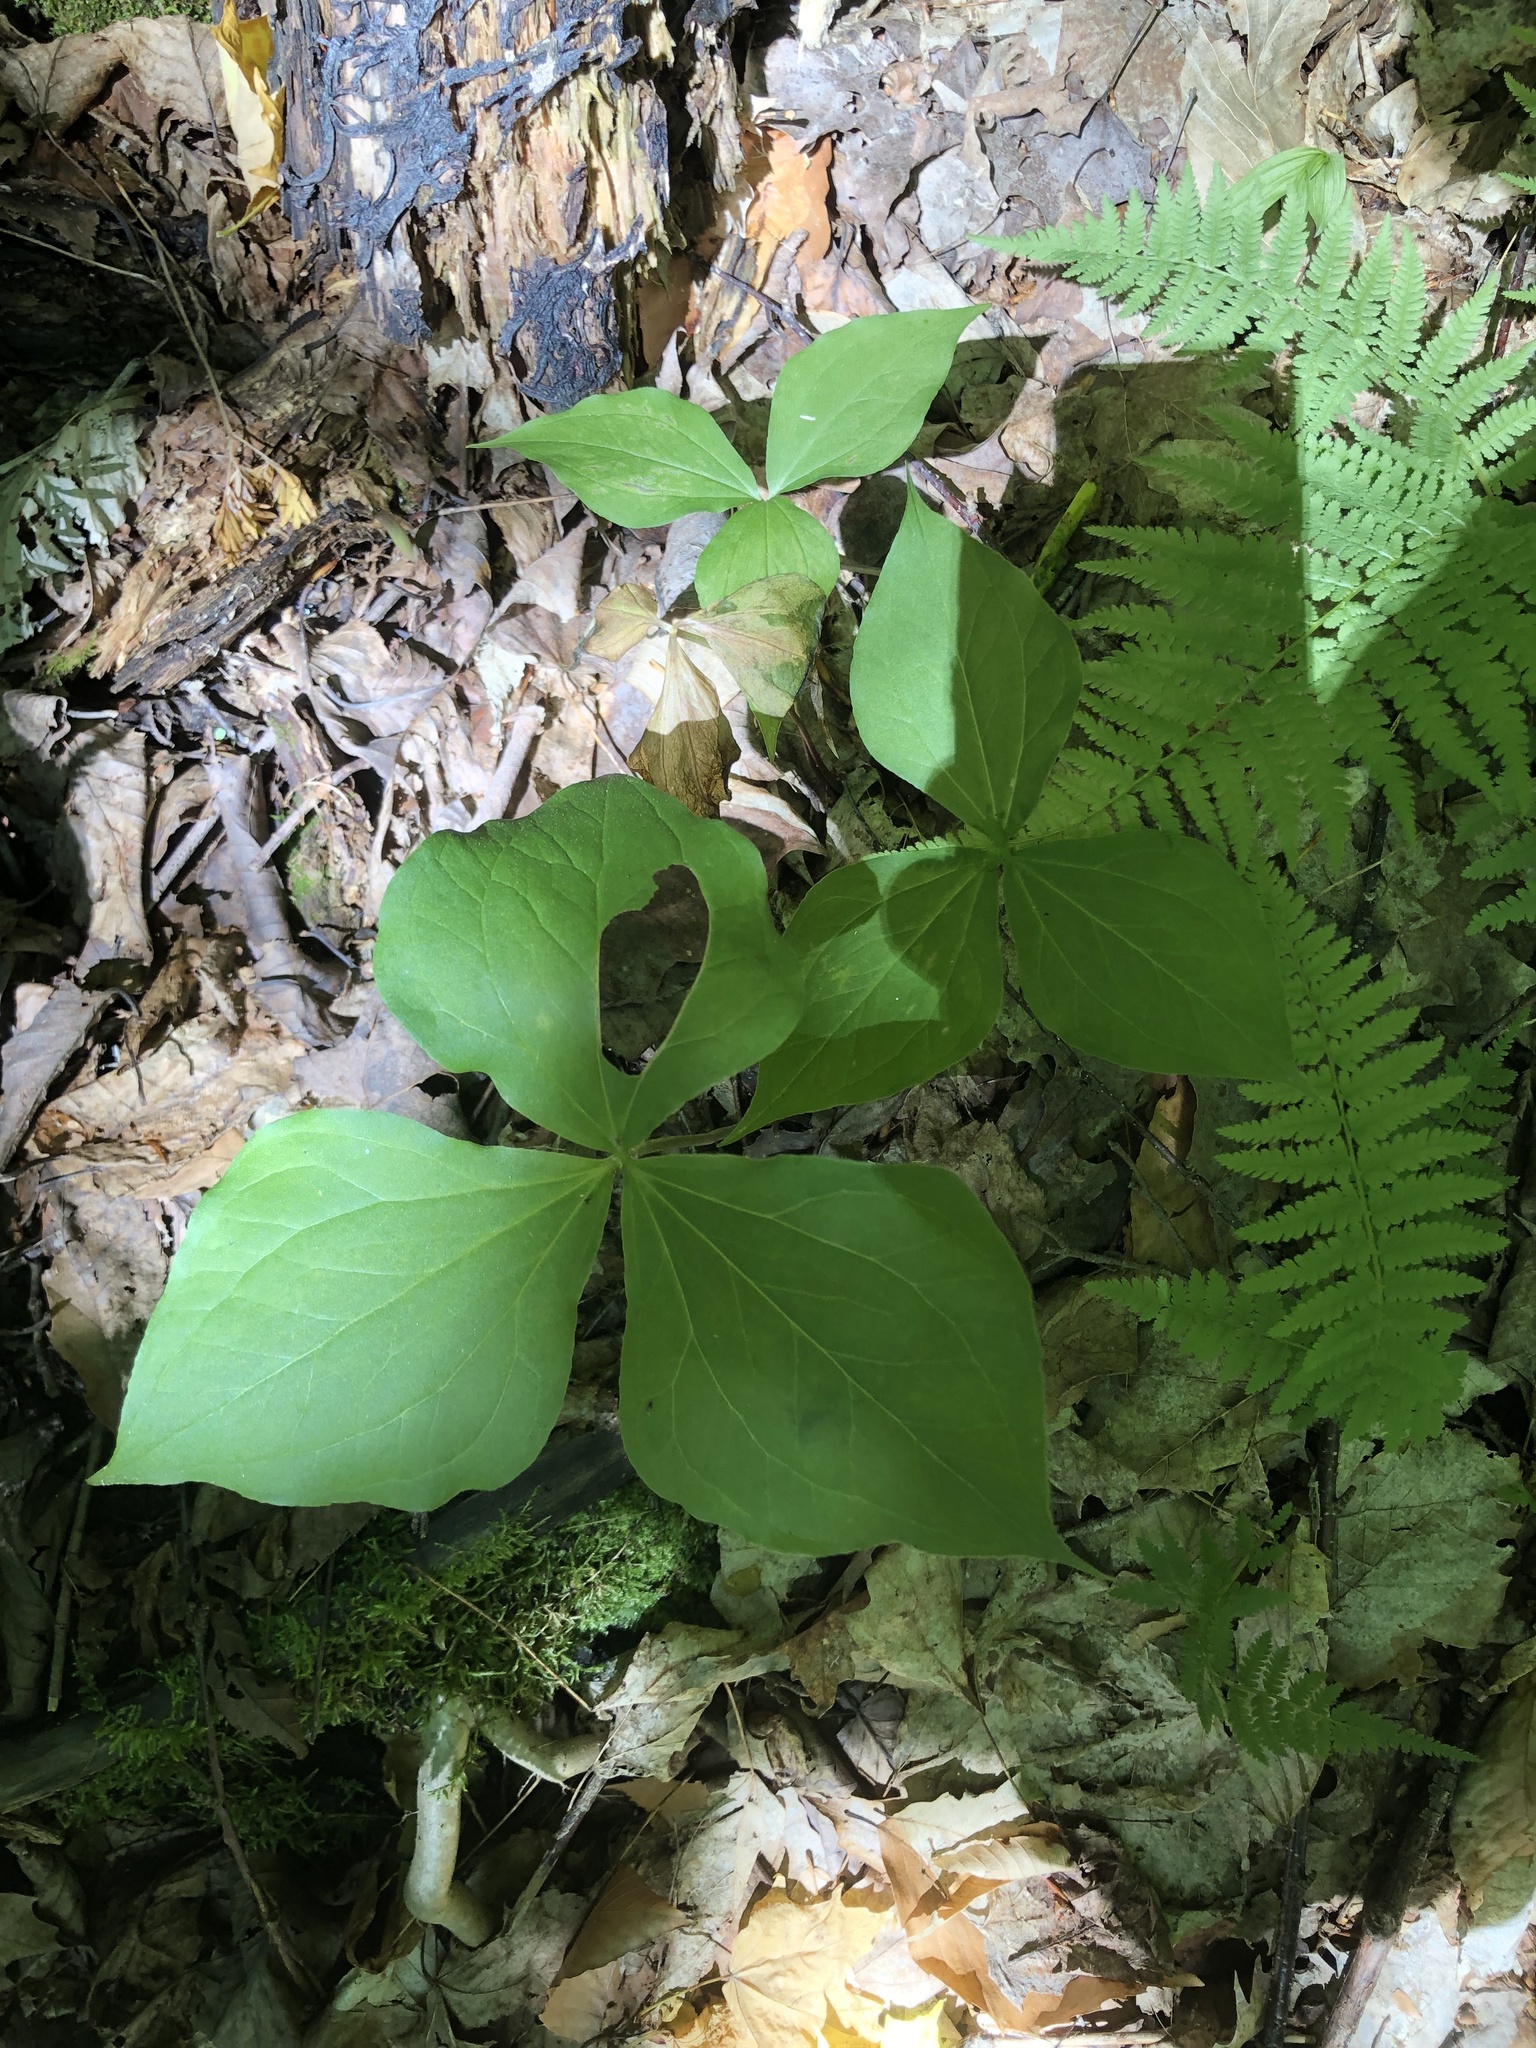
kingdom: Plantae
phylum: Tracheophyta
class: Liliopsida
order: Liliales
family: Melanthiaceae
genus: Trillium
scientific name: Trillium erectum
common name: Purple trillium
